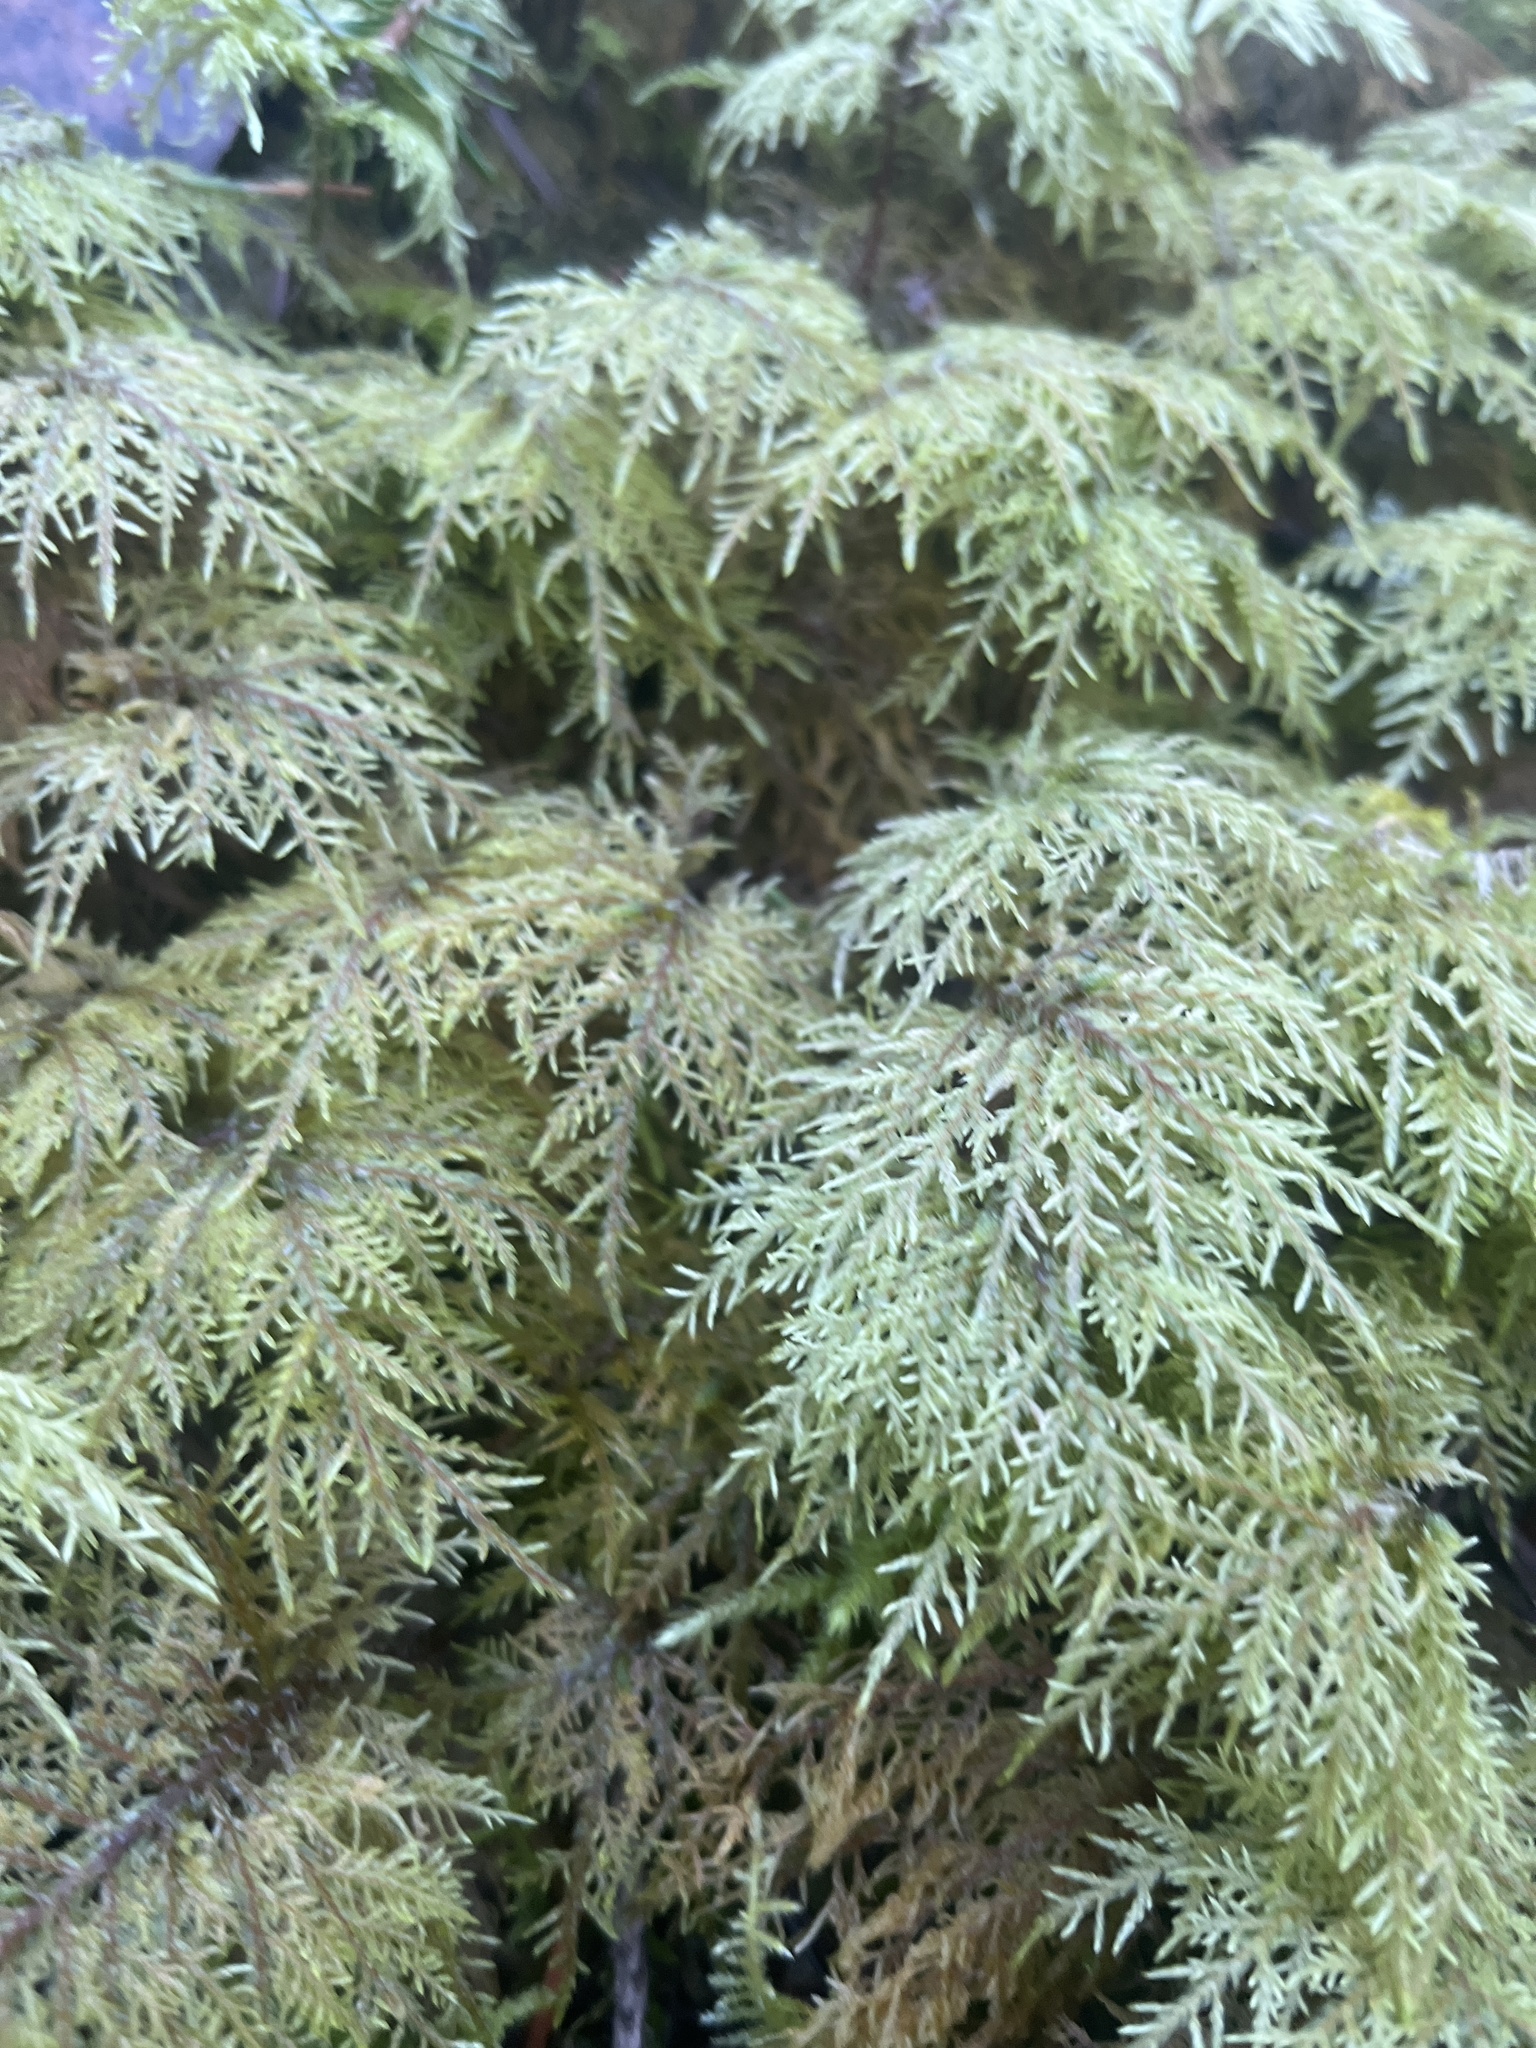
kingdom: Plantae
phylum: Bryophyta
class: Bryopsida
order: Hypnales
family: Hylocomiaceae
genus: Hylocomium
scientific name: Hylocomium splendens
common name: Stairstep moss
